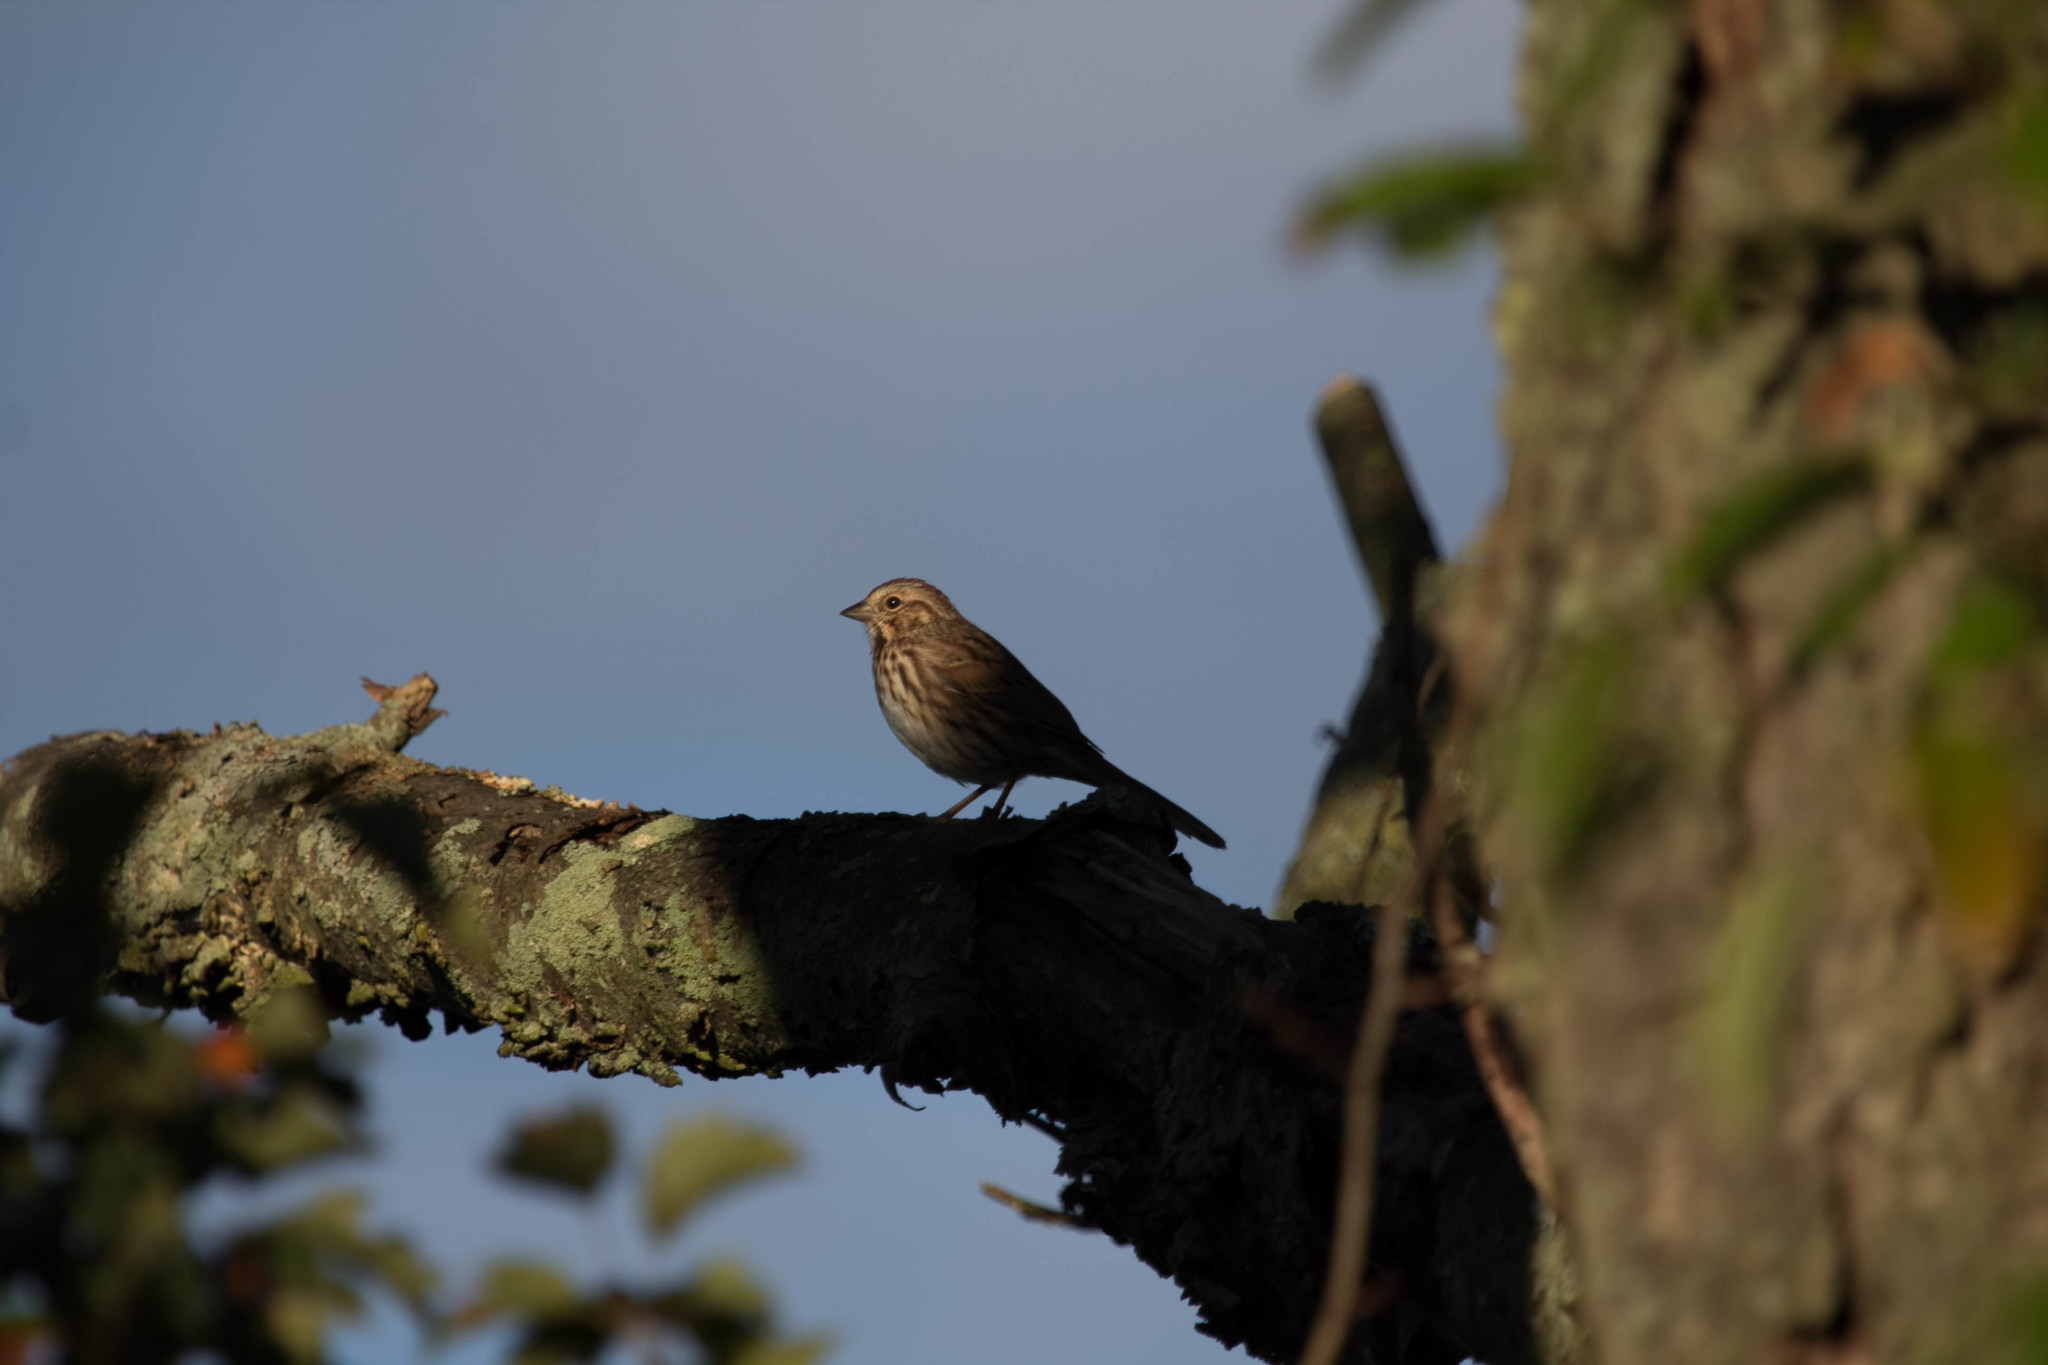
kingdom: Animalia
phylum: Chordata
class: Aves
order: Passeriformes
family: Passerellidae
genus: Melospiza
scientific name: Melospiza melodia
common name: Song sparrow
